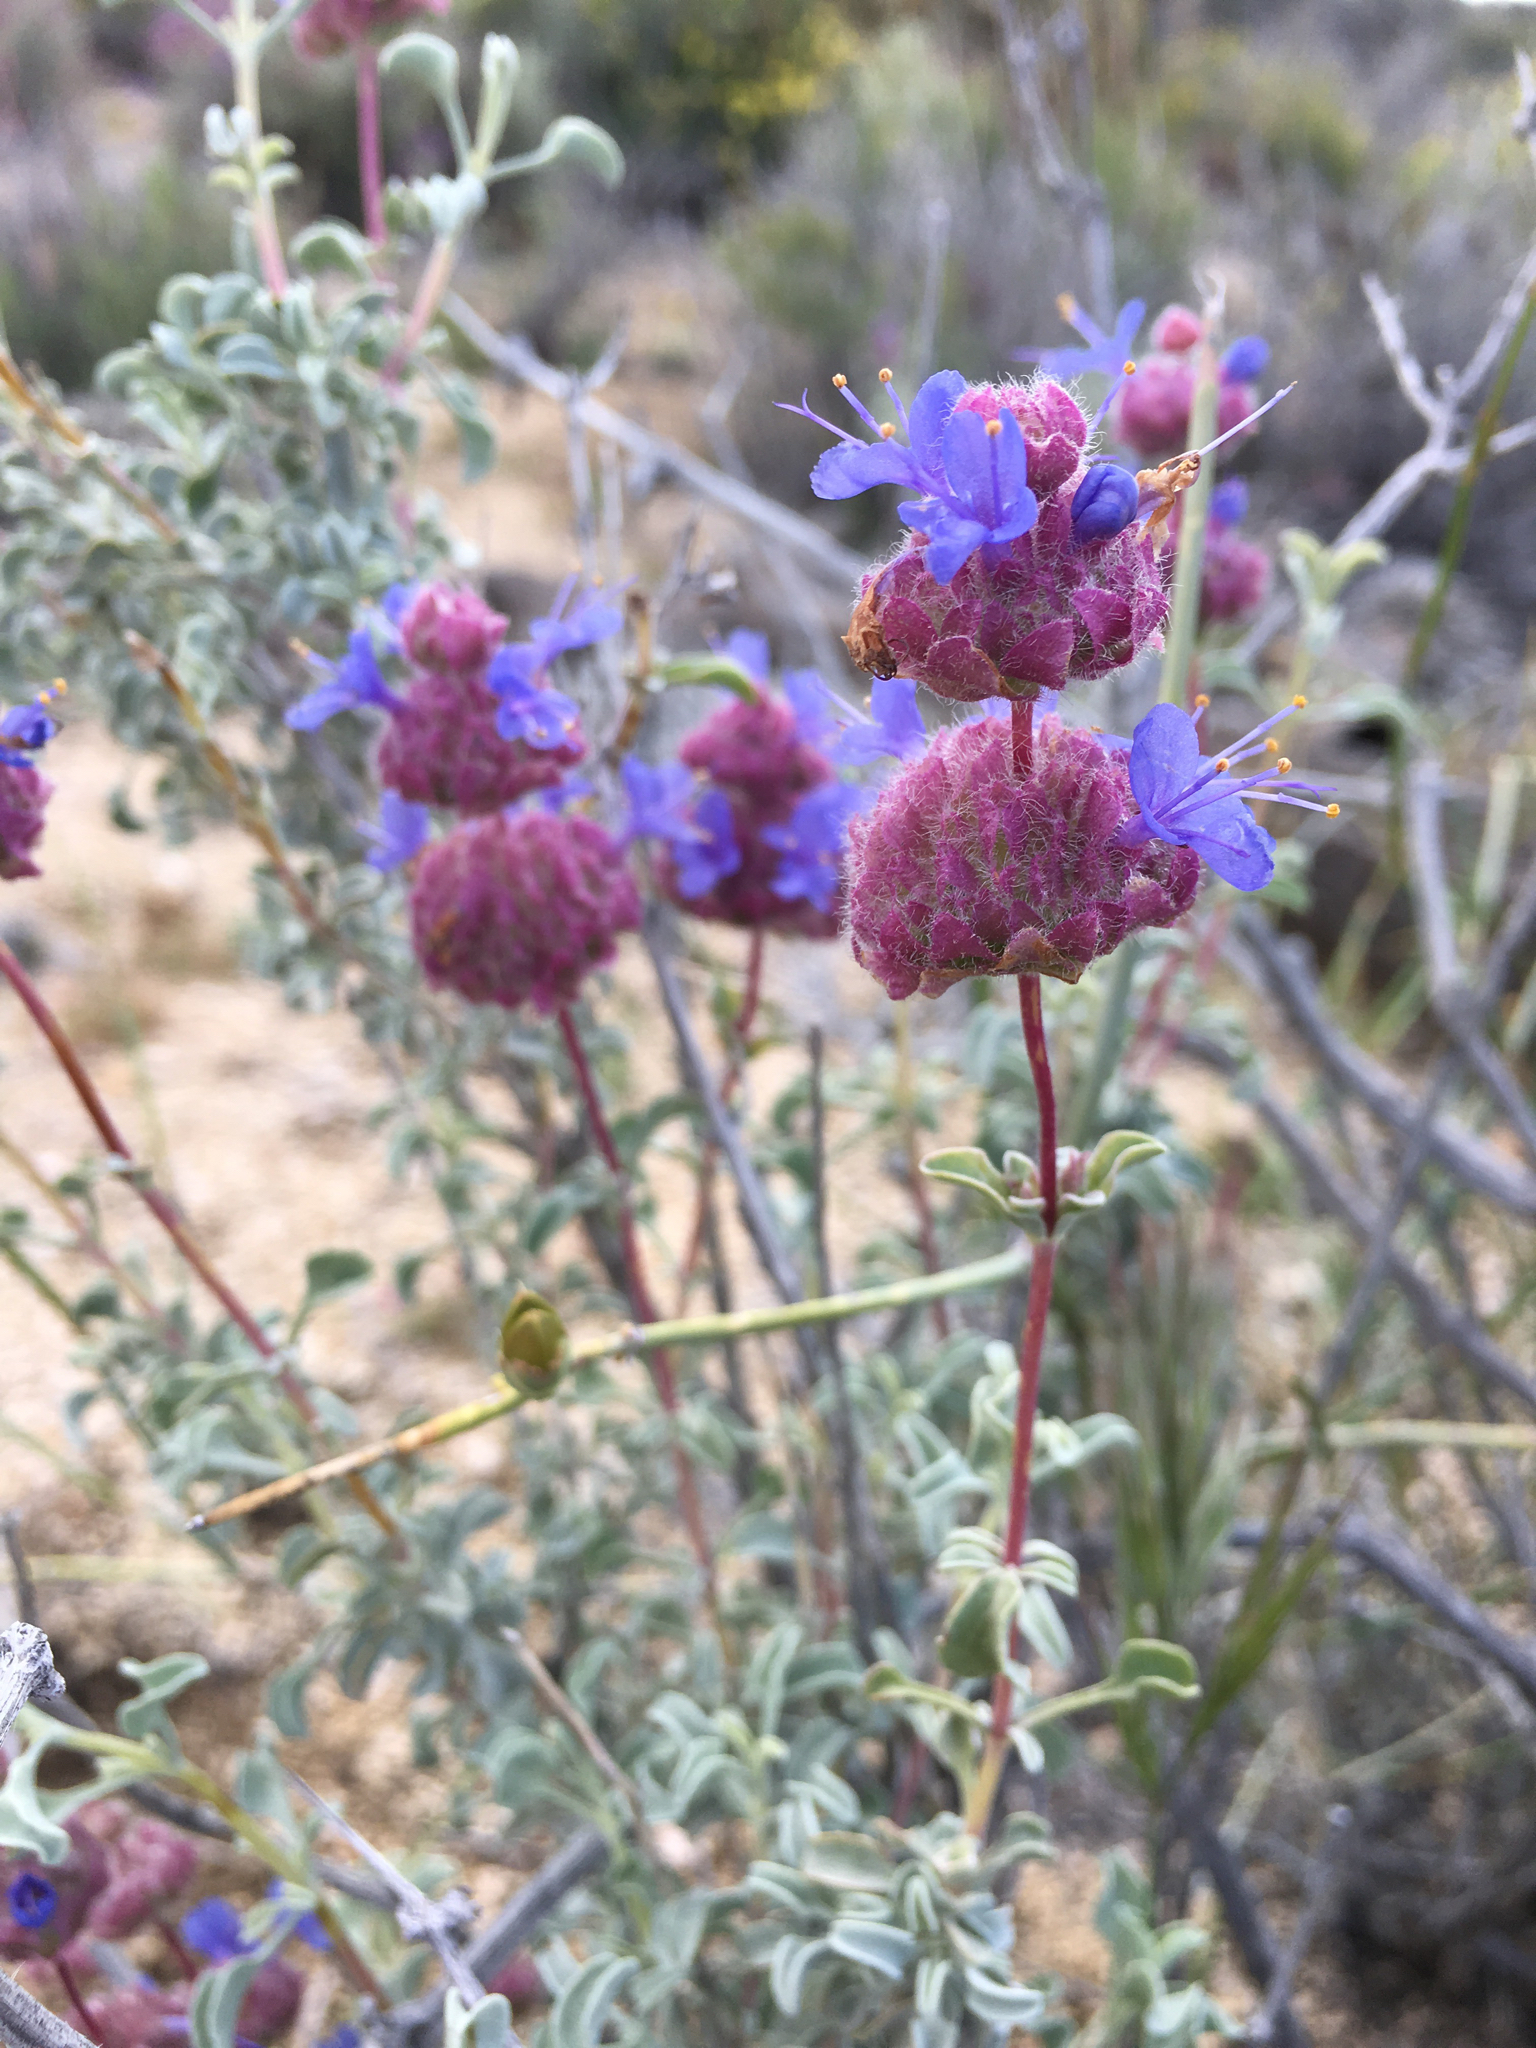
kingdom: Plantae
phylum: Tracheophyta
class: Magnoliopsida
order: Lamiales
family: Lamiaceae
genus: Salvia
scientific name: Salvia dorrii
